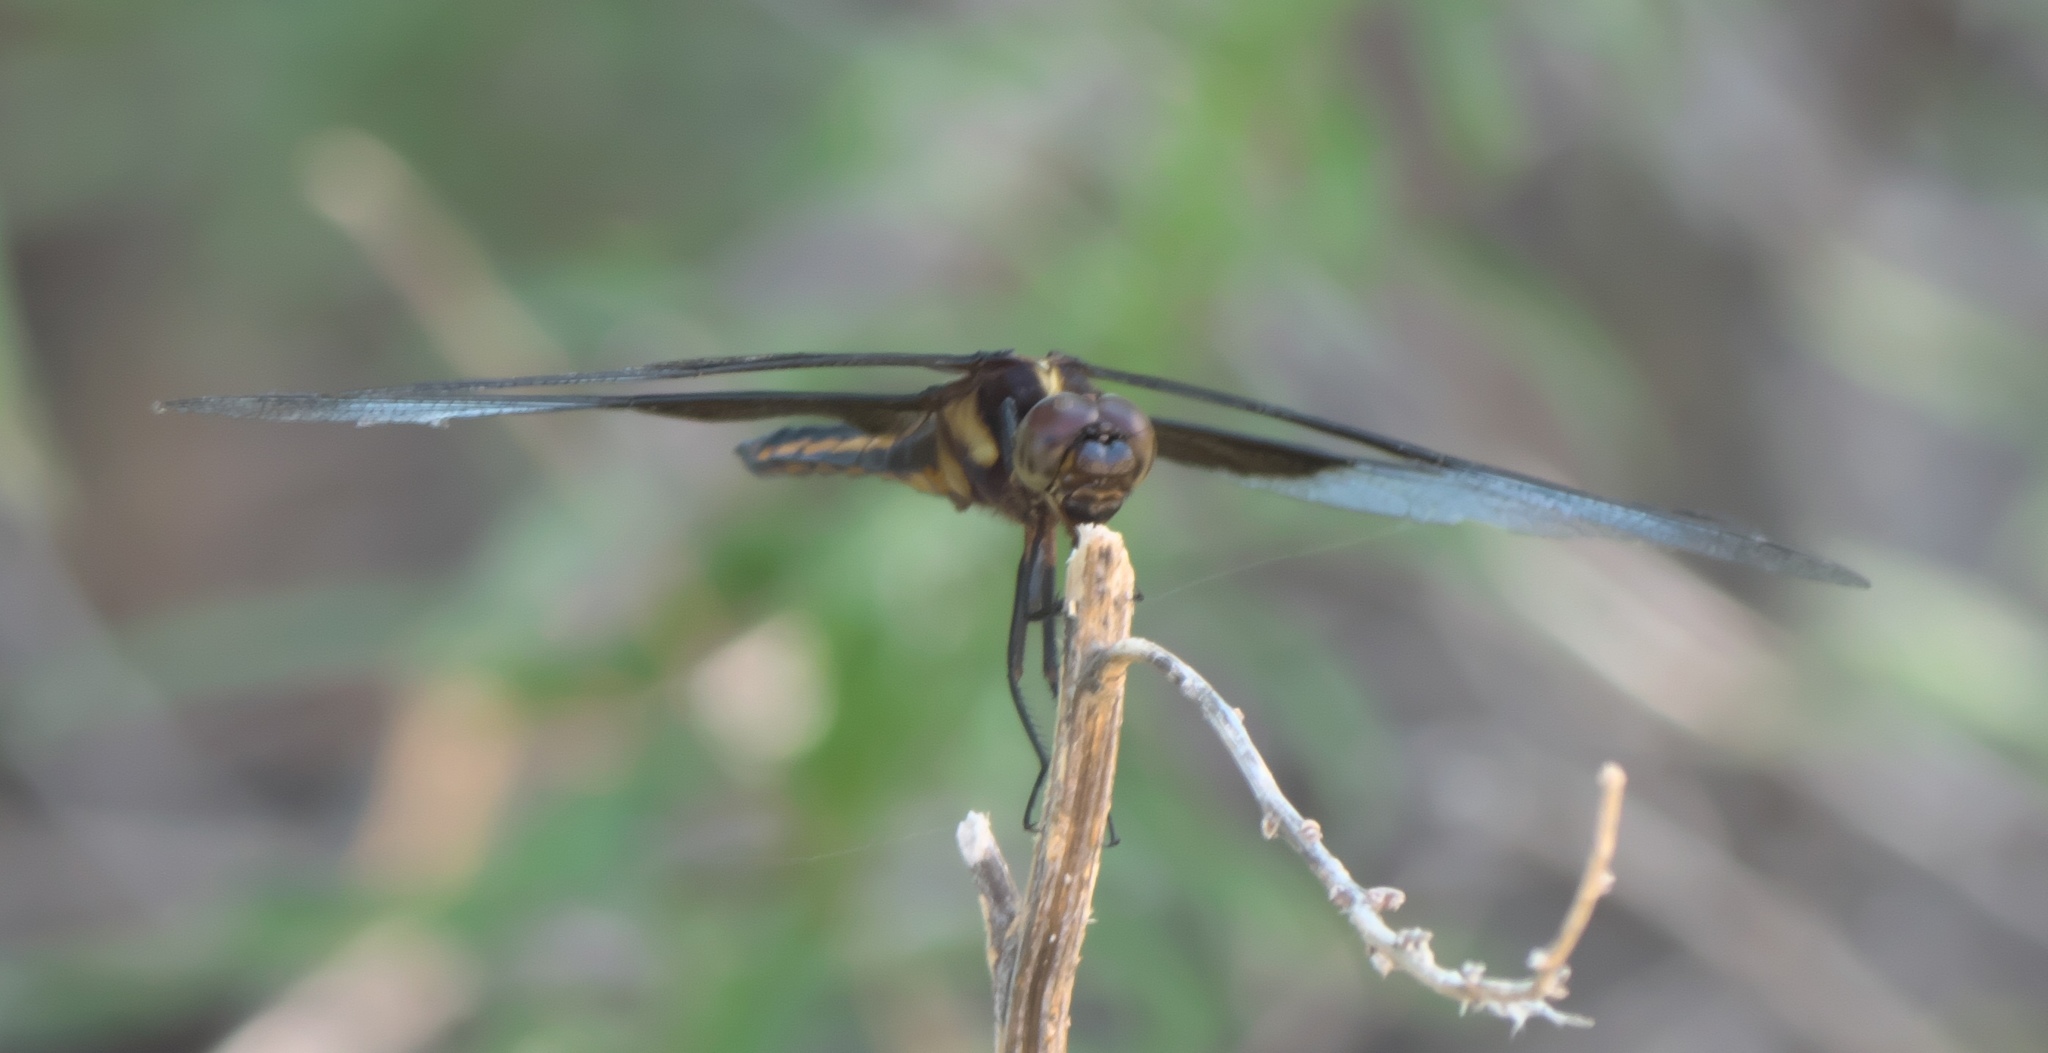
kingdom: Animalia
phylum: Arthropoda
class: Insecta
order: Odonata
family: Libellulidae
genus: Libellula
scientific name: Libellula luctuosa
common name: Widow skimmer
